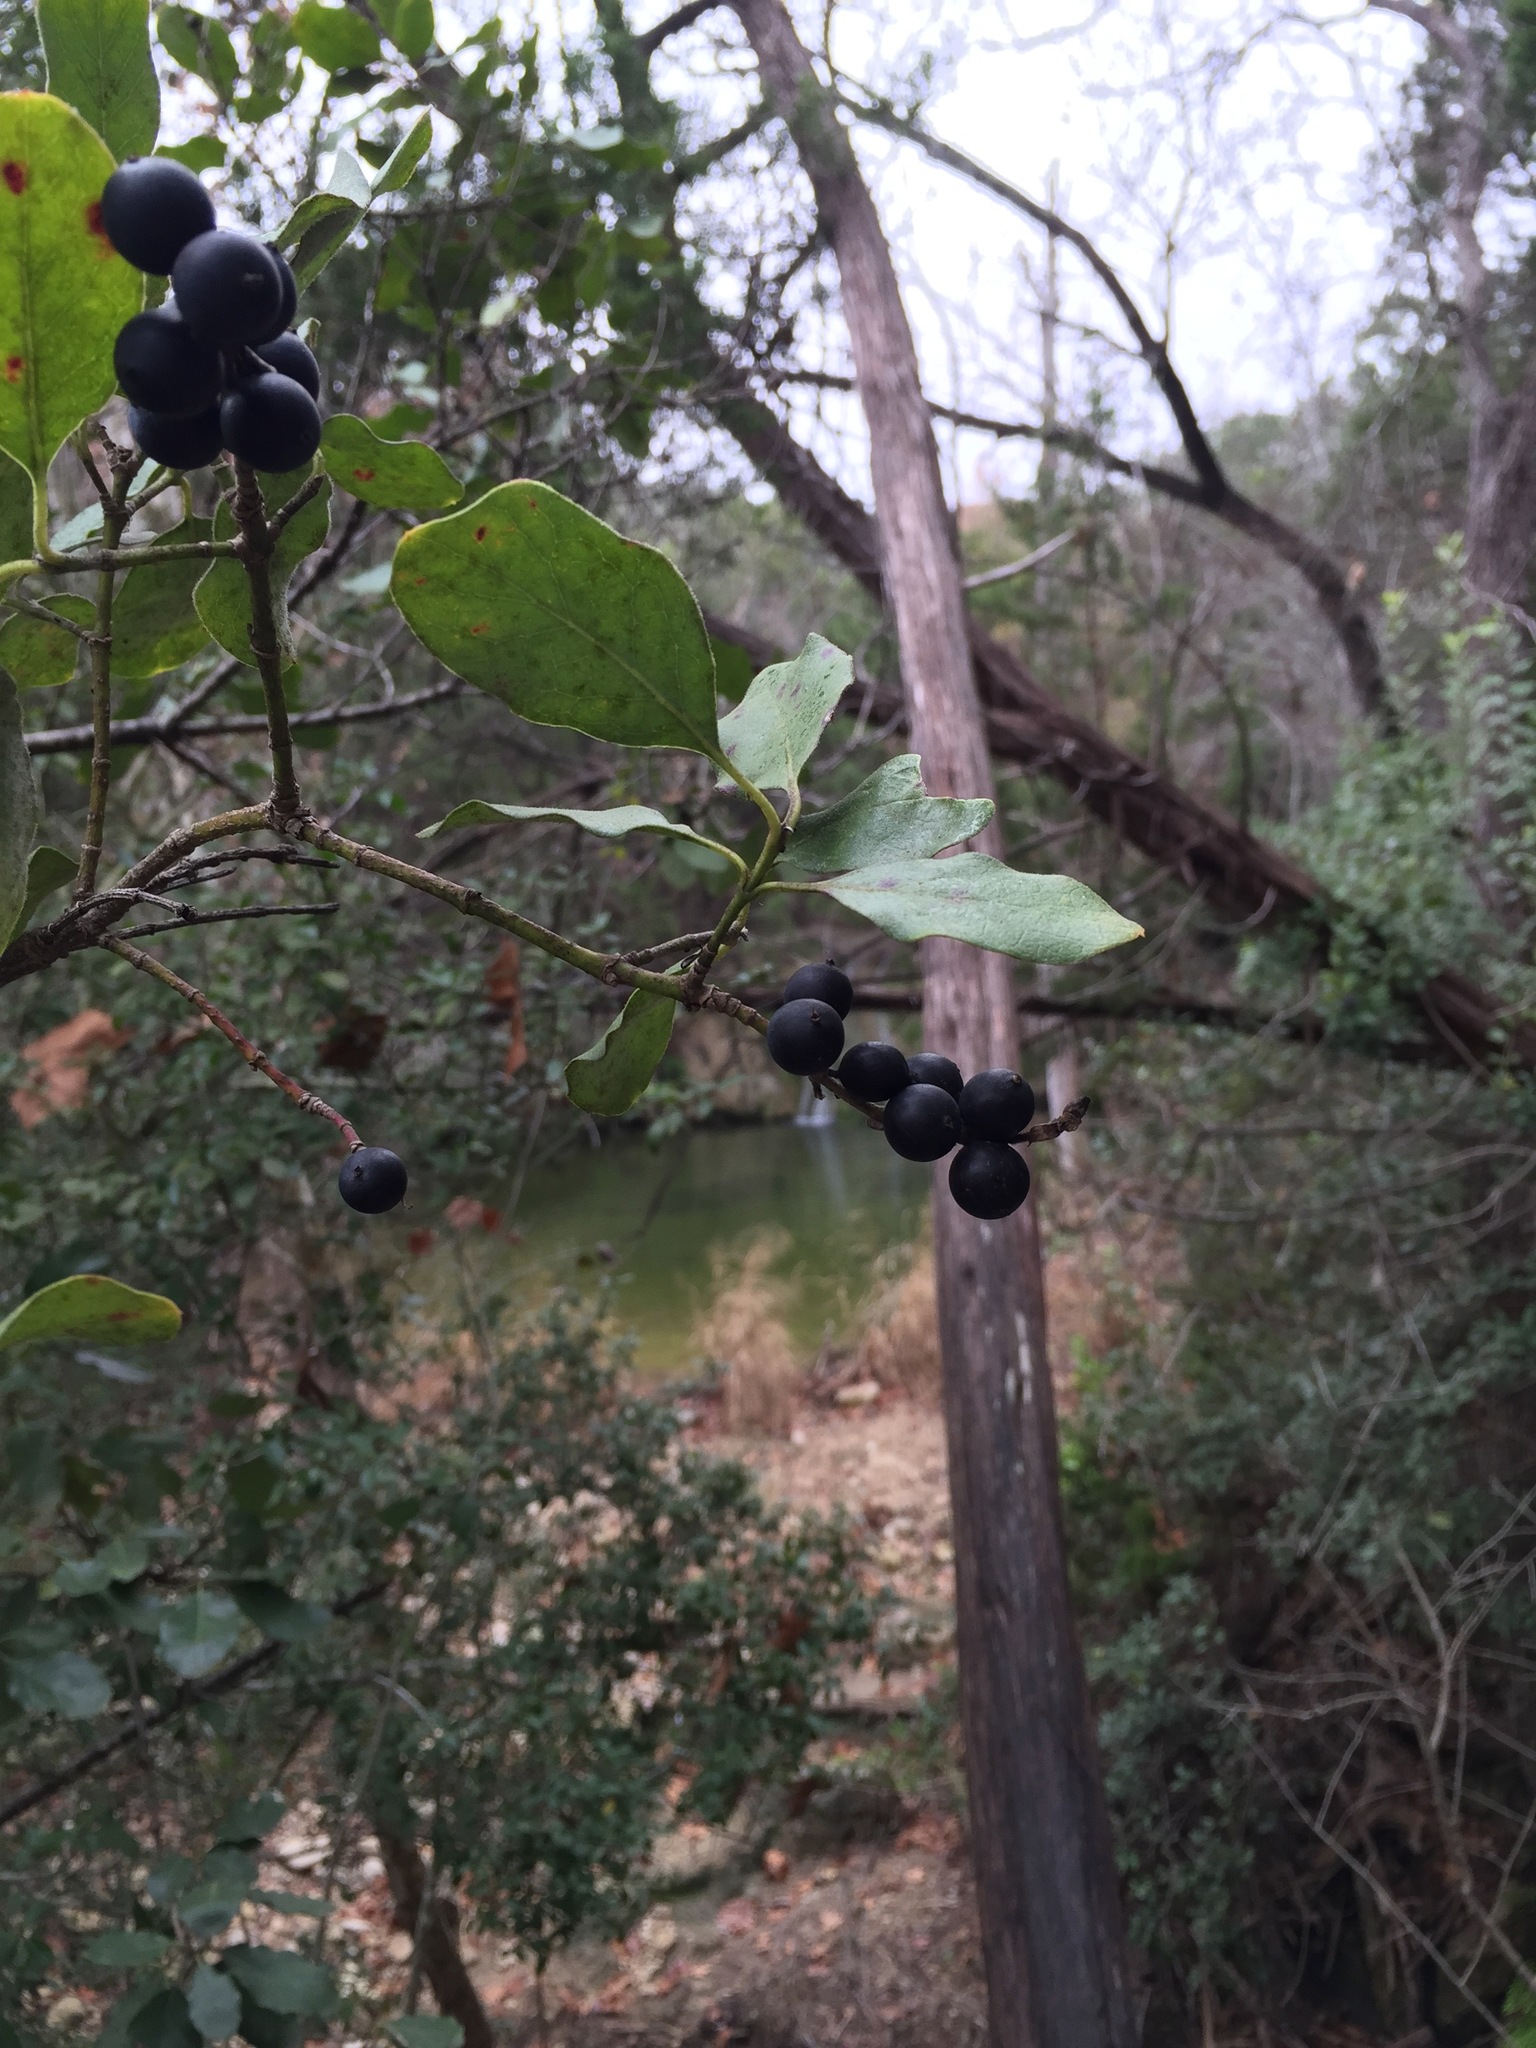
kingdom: Plantae
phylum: Tracheophyta
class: Magnoliopsida
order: Garryales
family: Garryaceae
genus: Garrya
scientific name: Garrya lindheimeri
